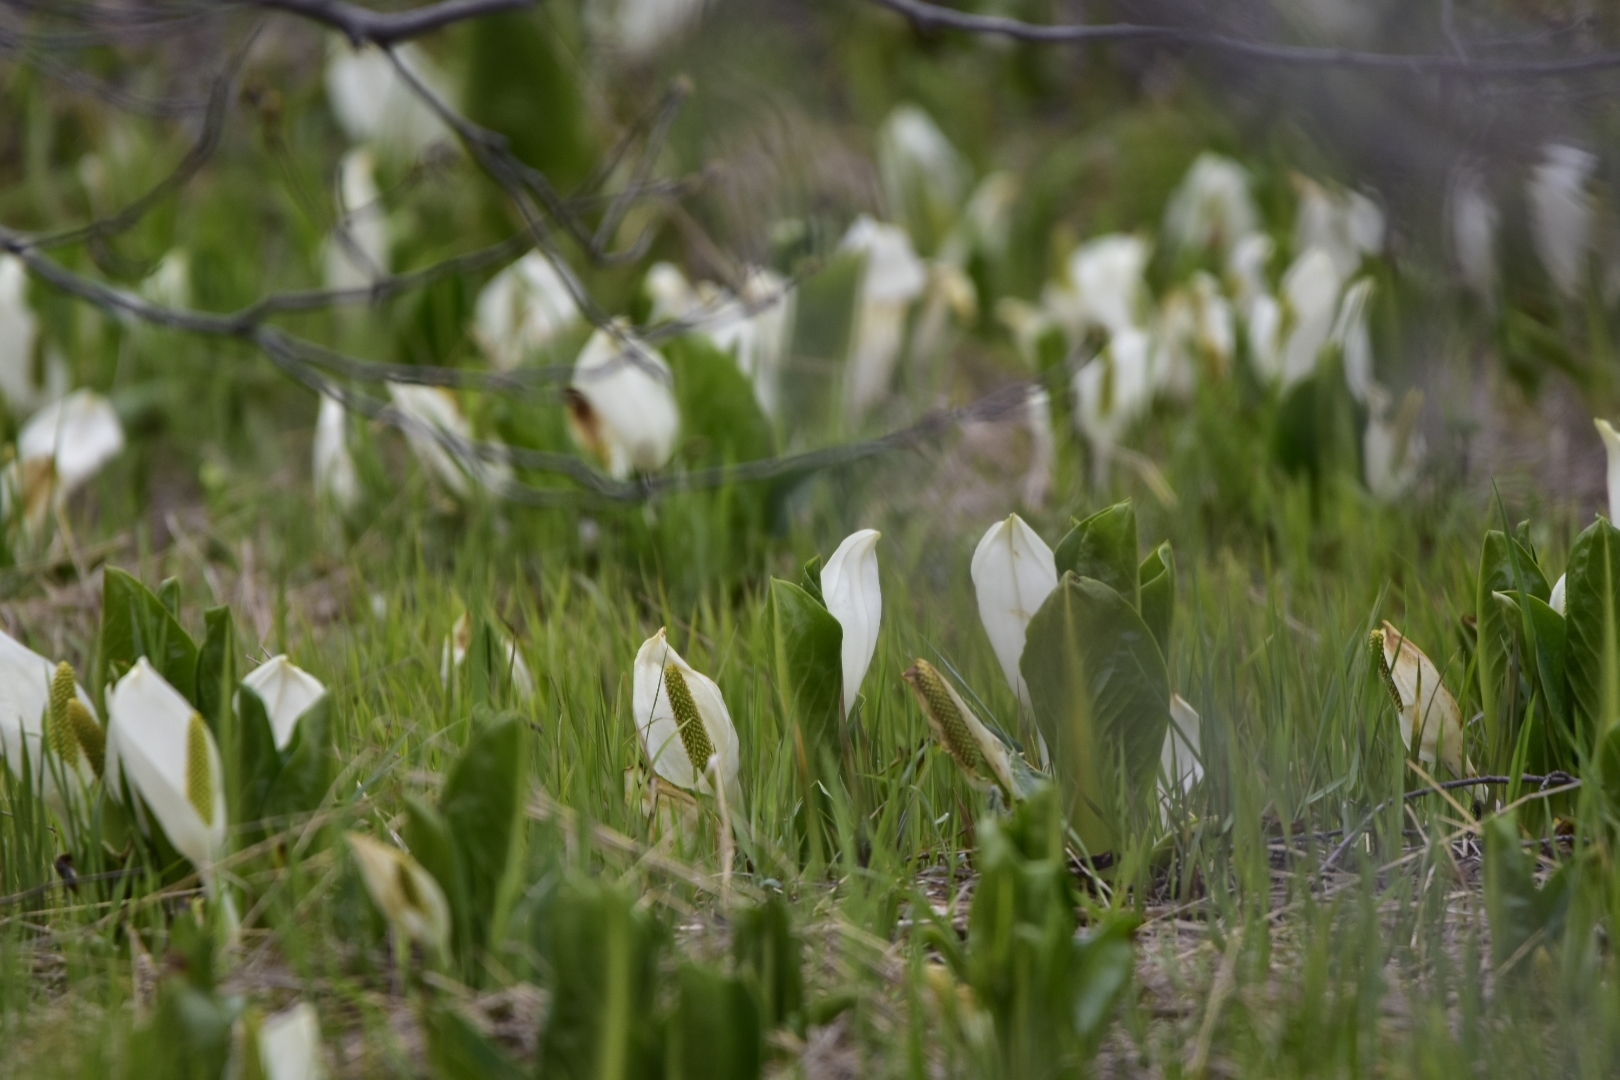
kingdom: Plantae
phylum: Tracheophyta
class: Liliopsida
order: Alismatales
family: Araceae
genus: Lysichiton
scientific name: Lysichiton camtschatcensis
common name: Asian skunk-cabbage
